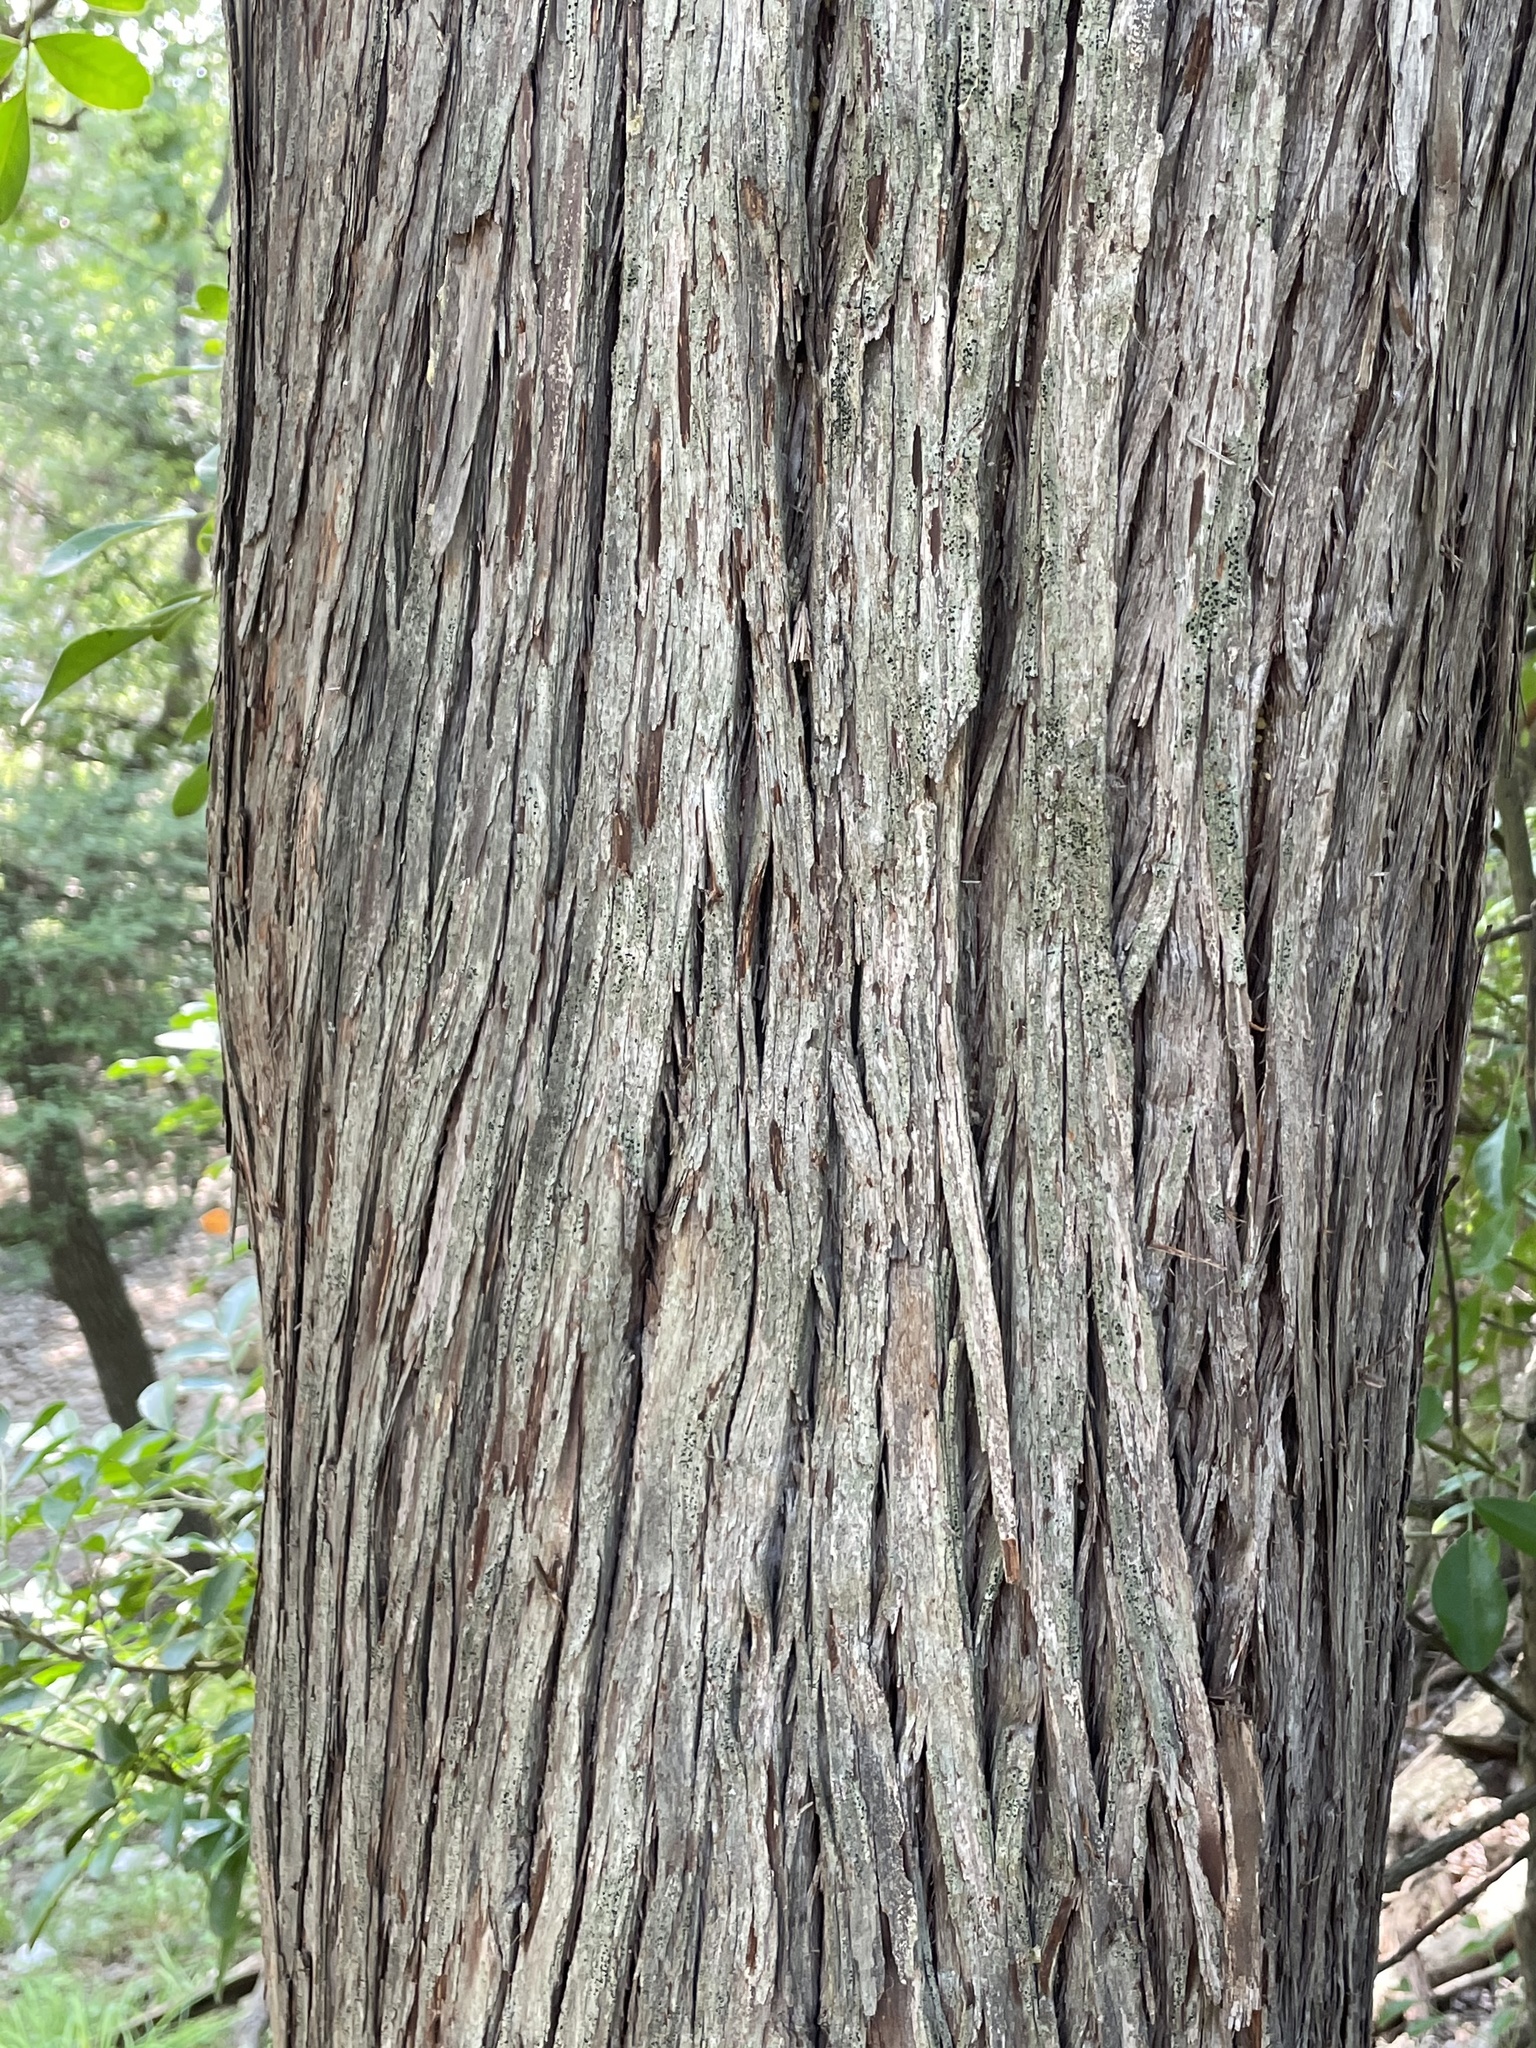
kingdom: Plantae
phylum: Tracheophyta
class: Pinopsida
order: Pinales
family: Cupressaceae
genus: Juniperus
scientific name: Juniperus ashei
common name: Mexican juniper
